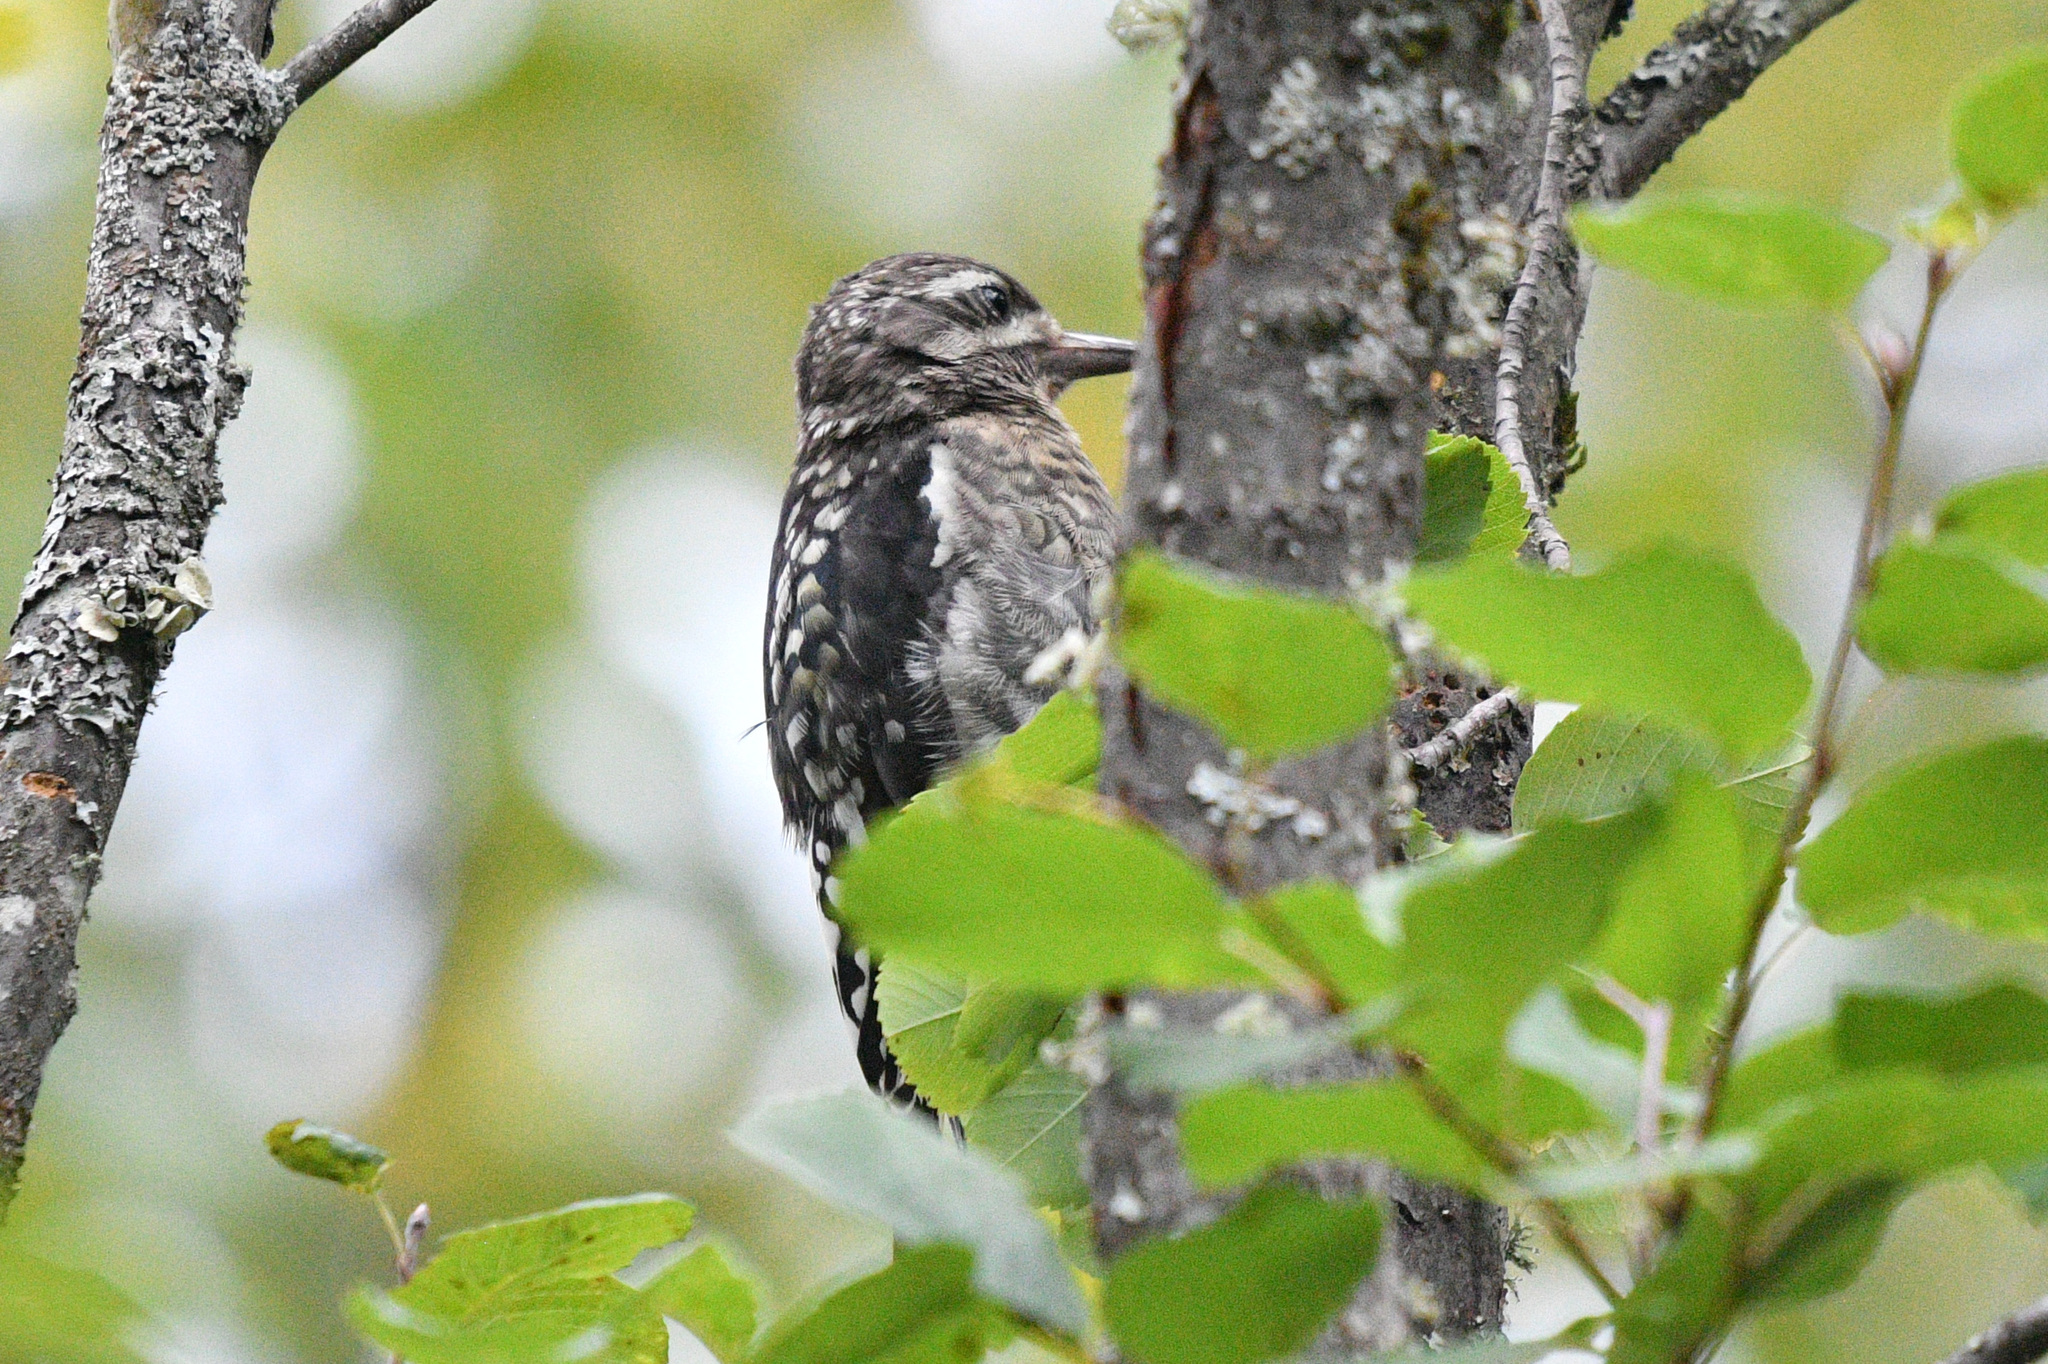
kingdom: Animalia
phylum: Chordata
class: Aves
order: Piciformes
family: Picidae
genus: Sphyrapicus
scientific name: Sphyrapicus varius
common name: Yellow-bellied sapsucker
